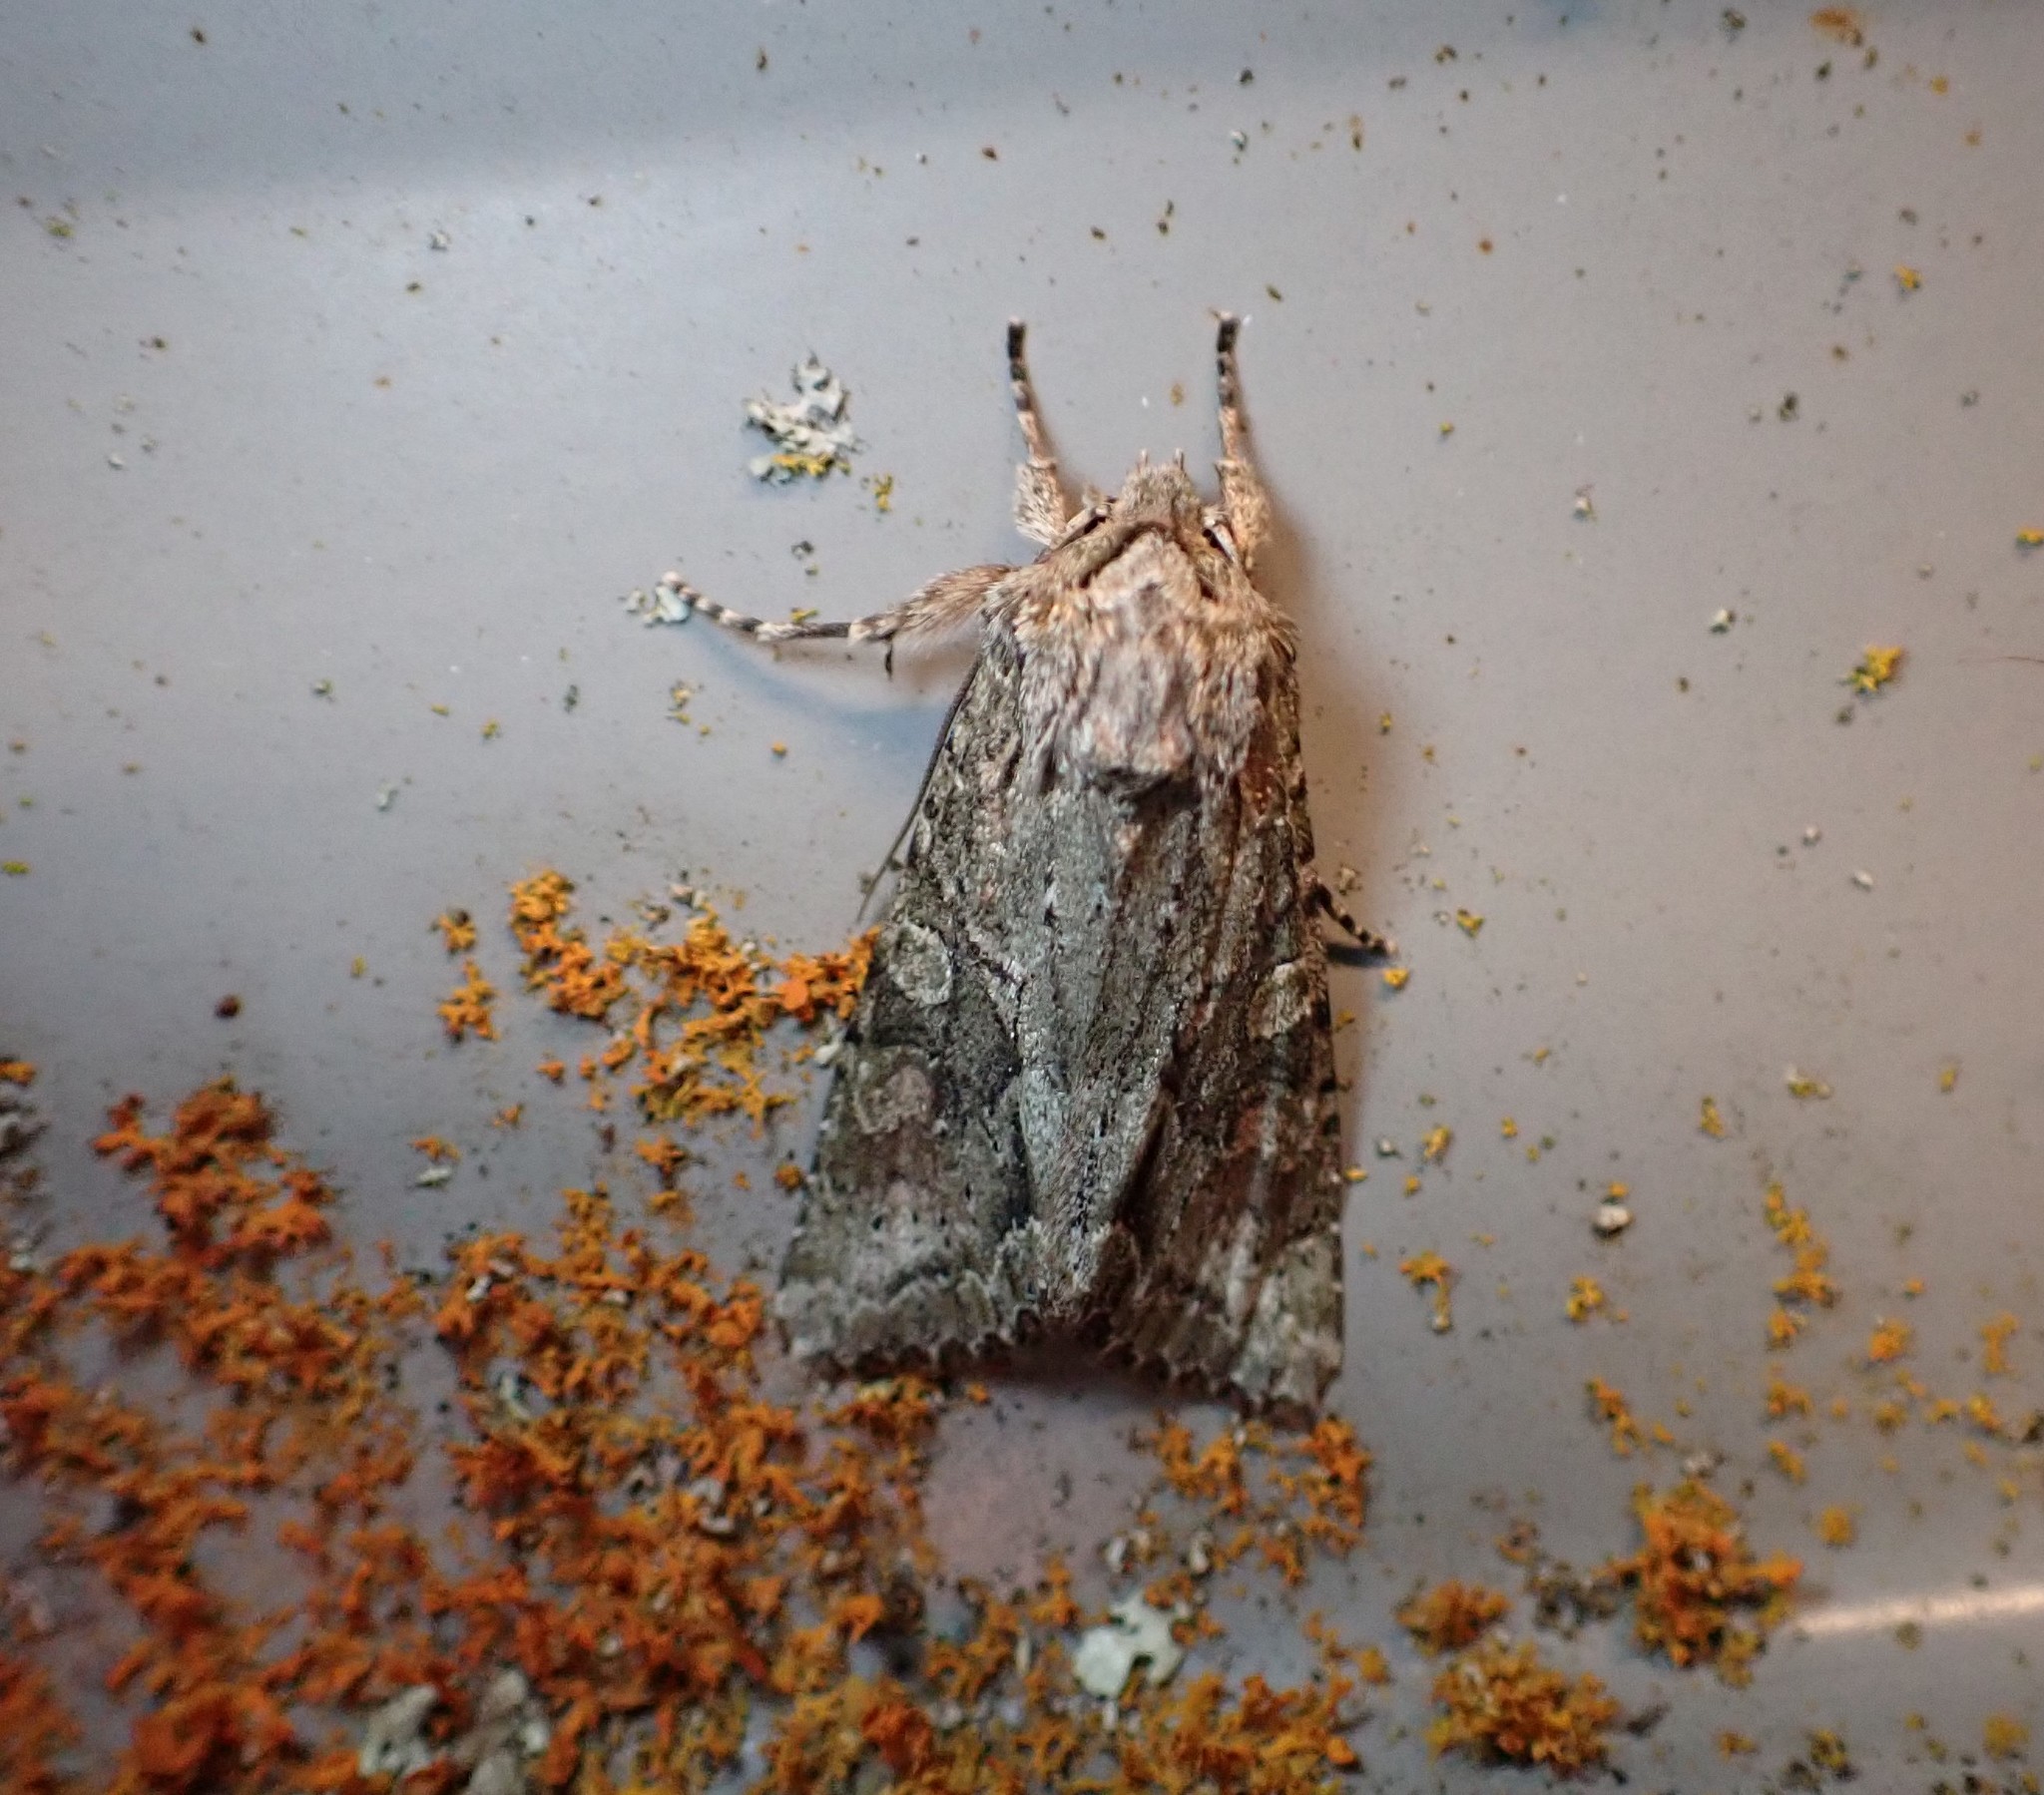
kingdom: Animalia
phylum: Arthropoda
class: Insecta
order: Lepidoptera
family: Noctuidae
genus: Ichneutica
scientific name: Ichneutica mutans
